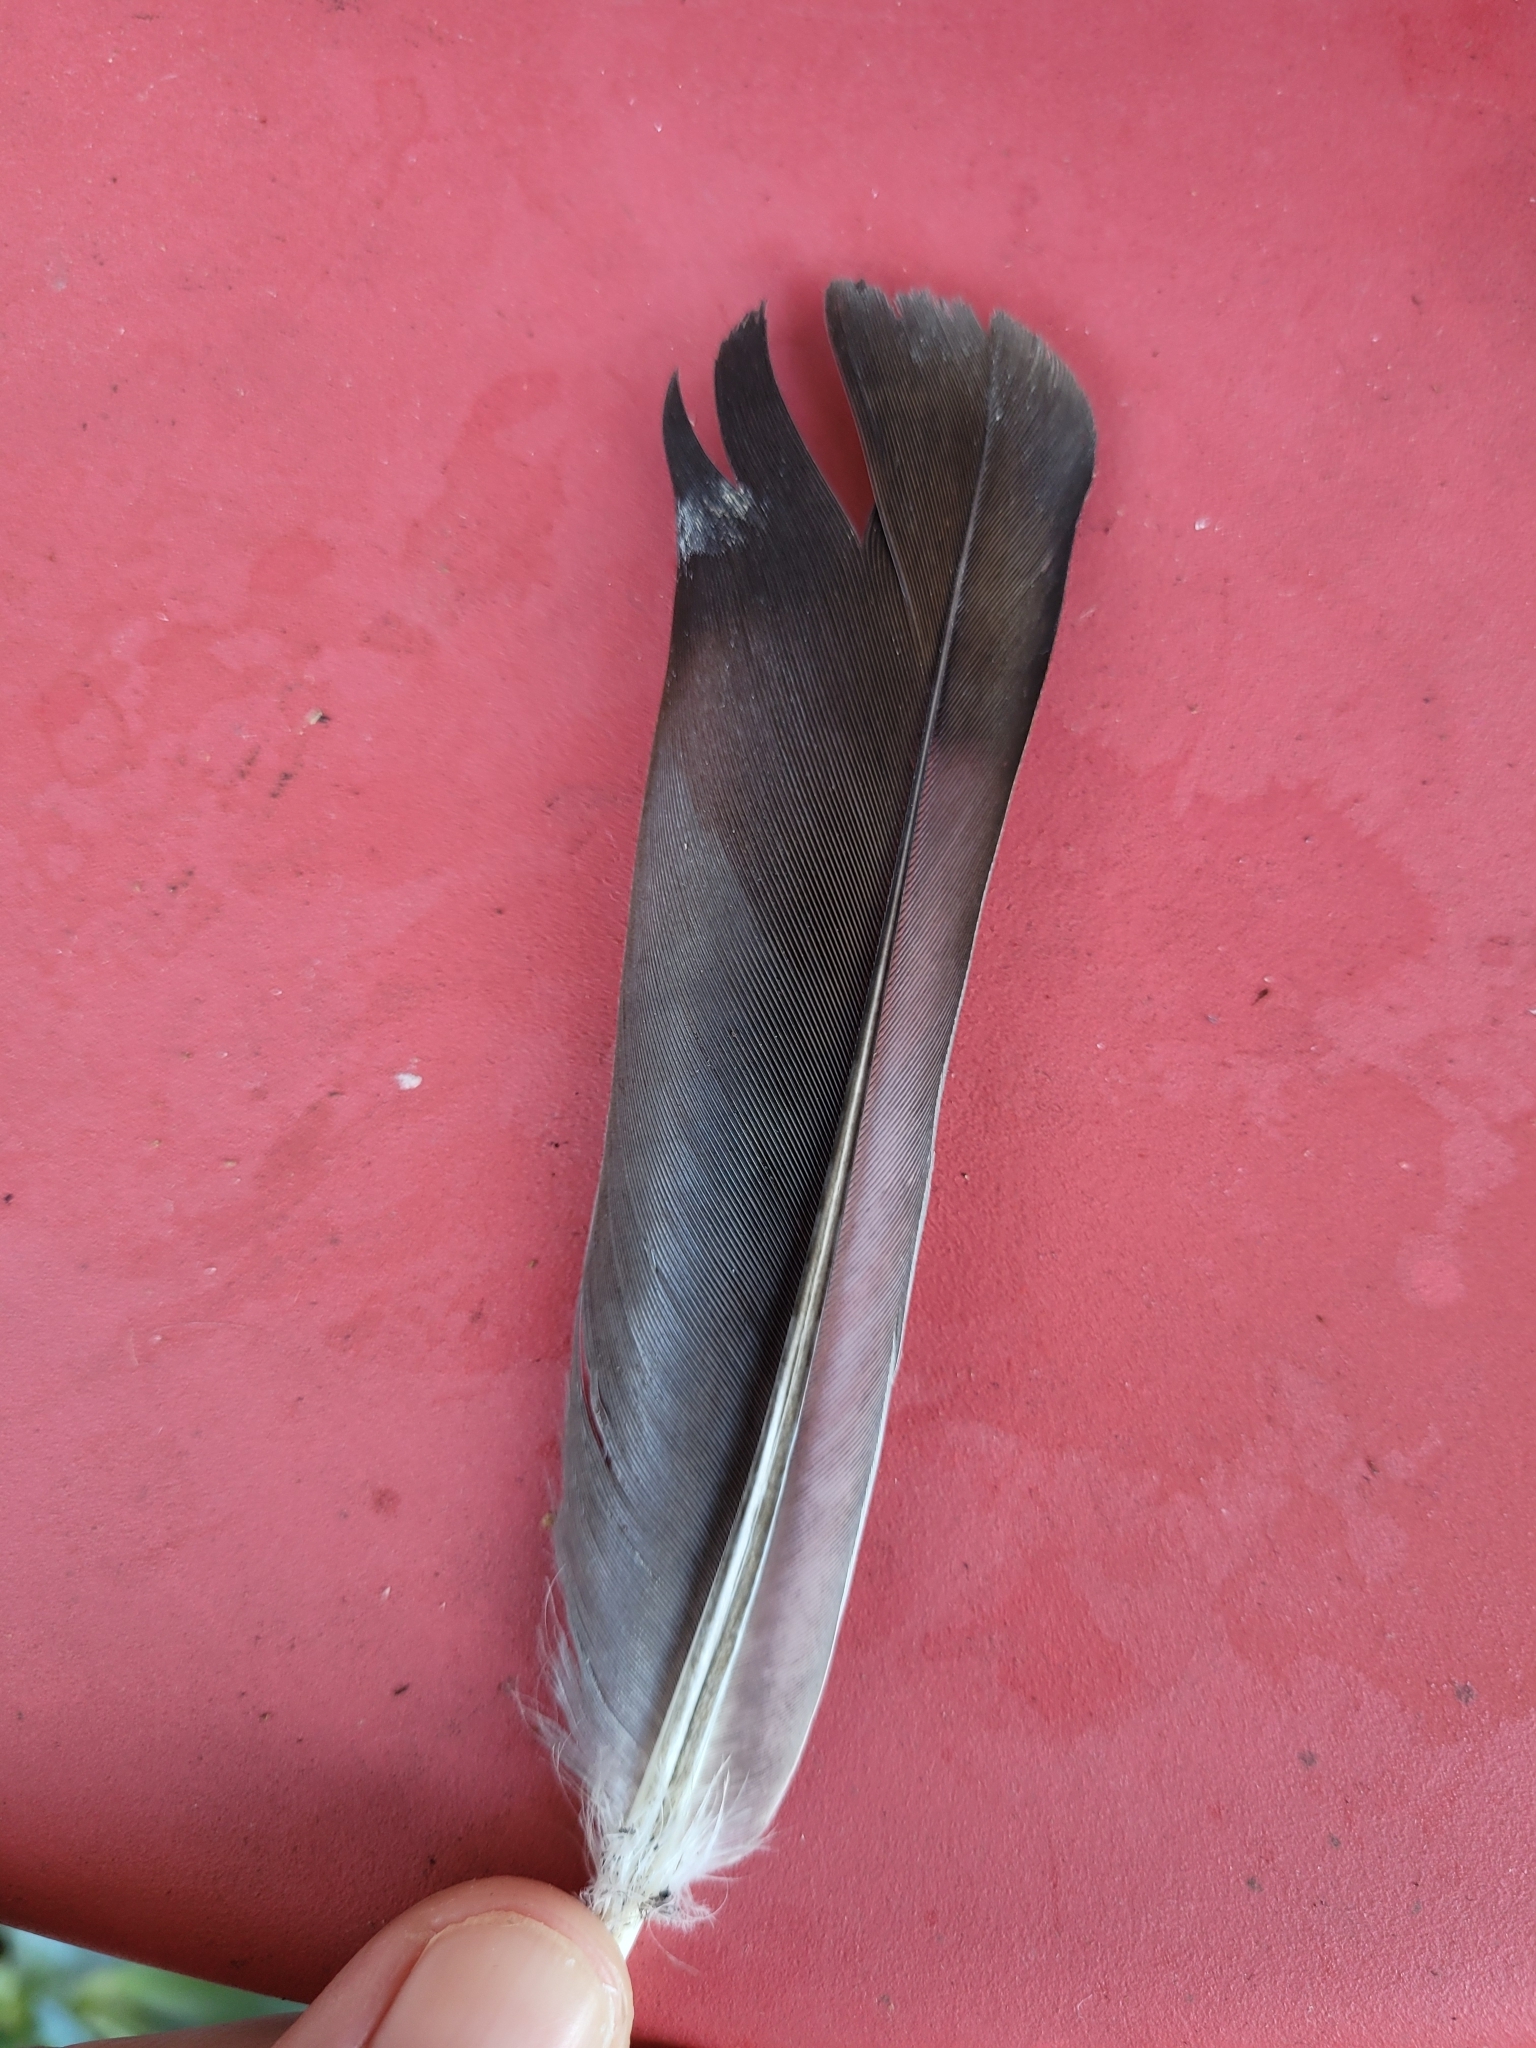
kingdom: Animalia
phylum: Chordata
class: Aves
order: Columbiformes
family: Columbidae
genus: Columba
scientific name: Columba livia
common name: Rock pigeon
